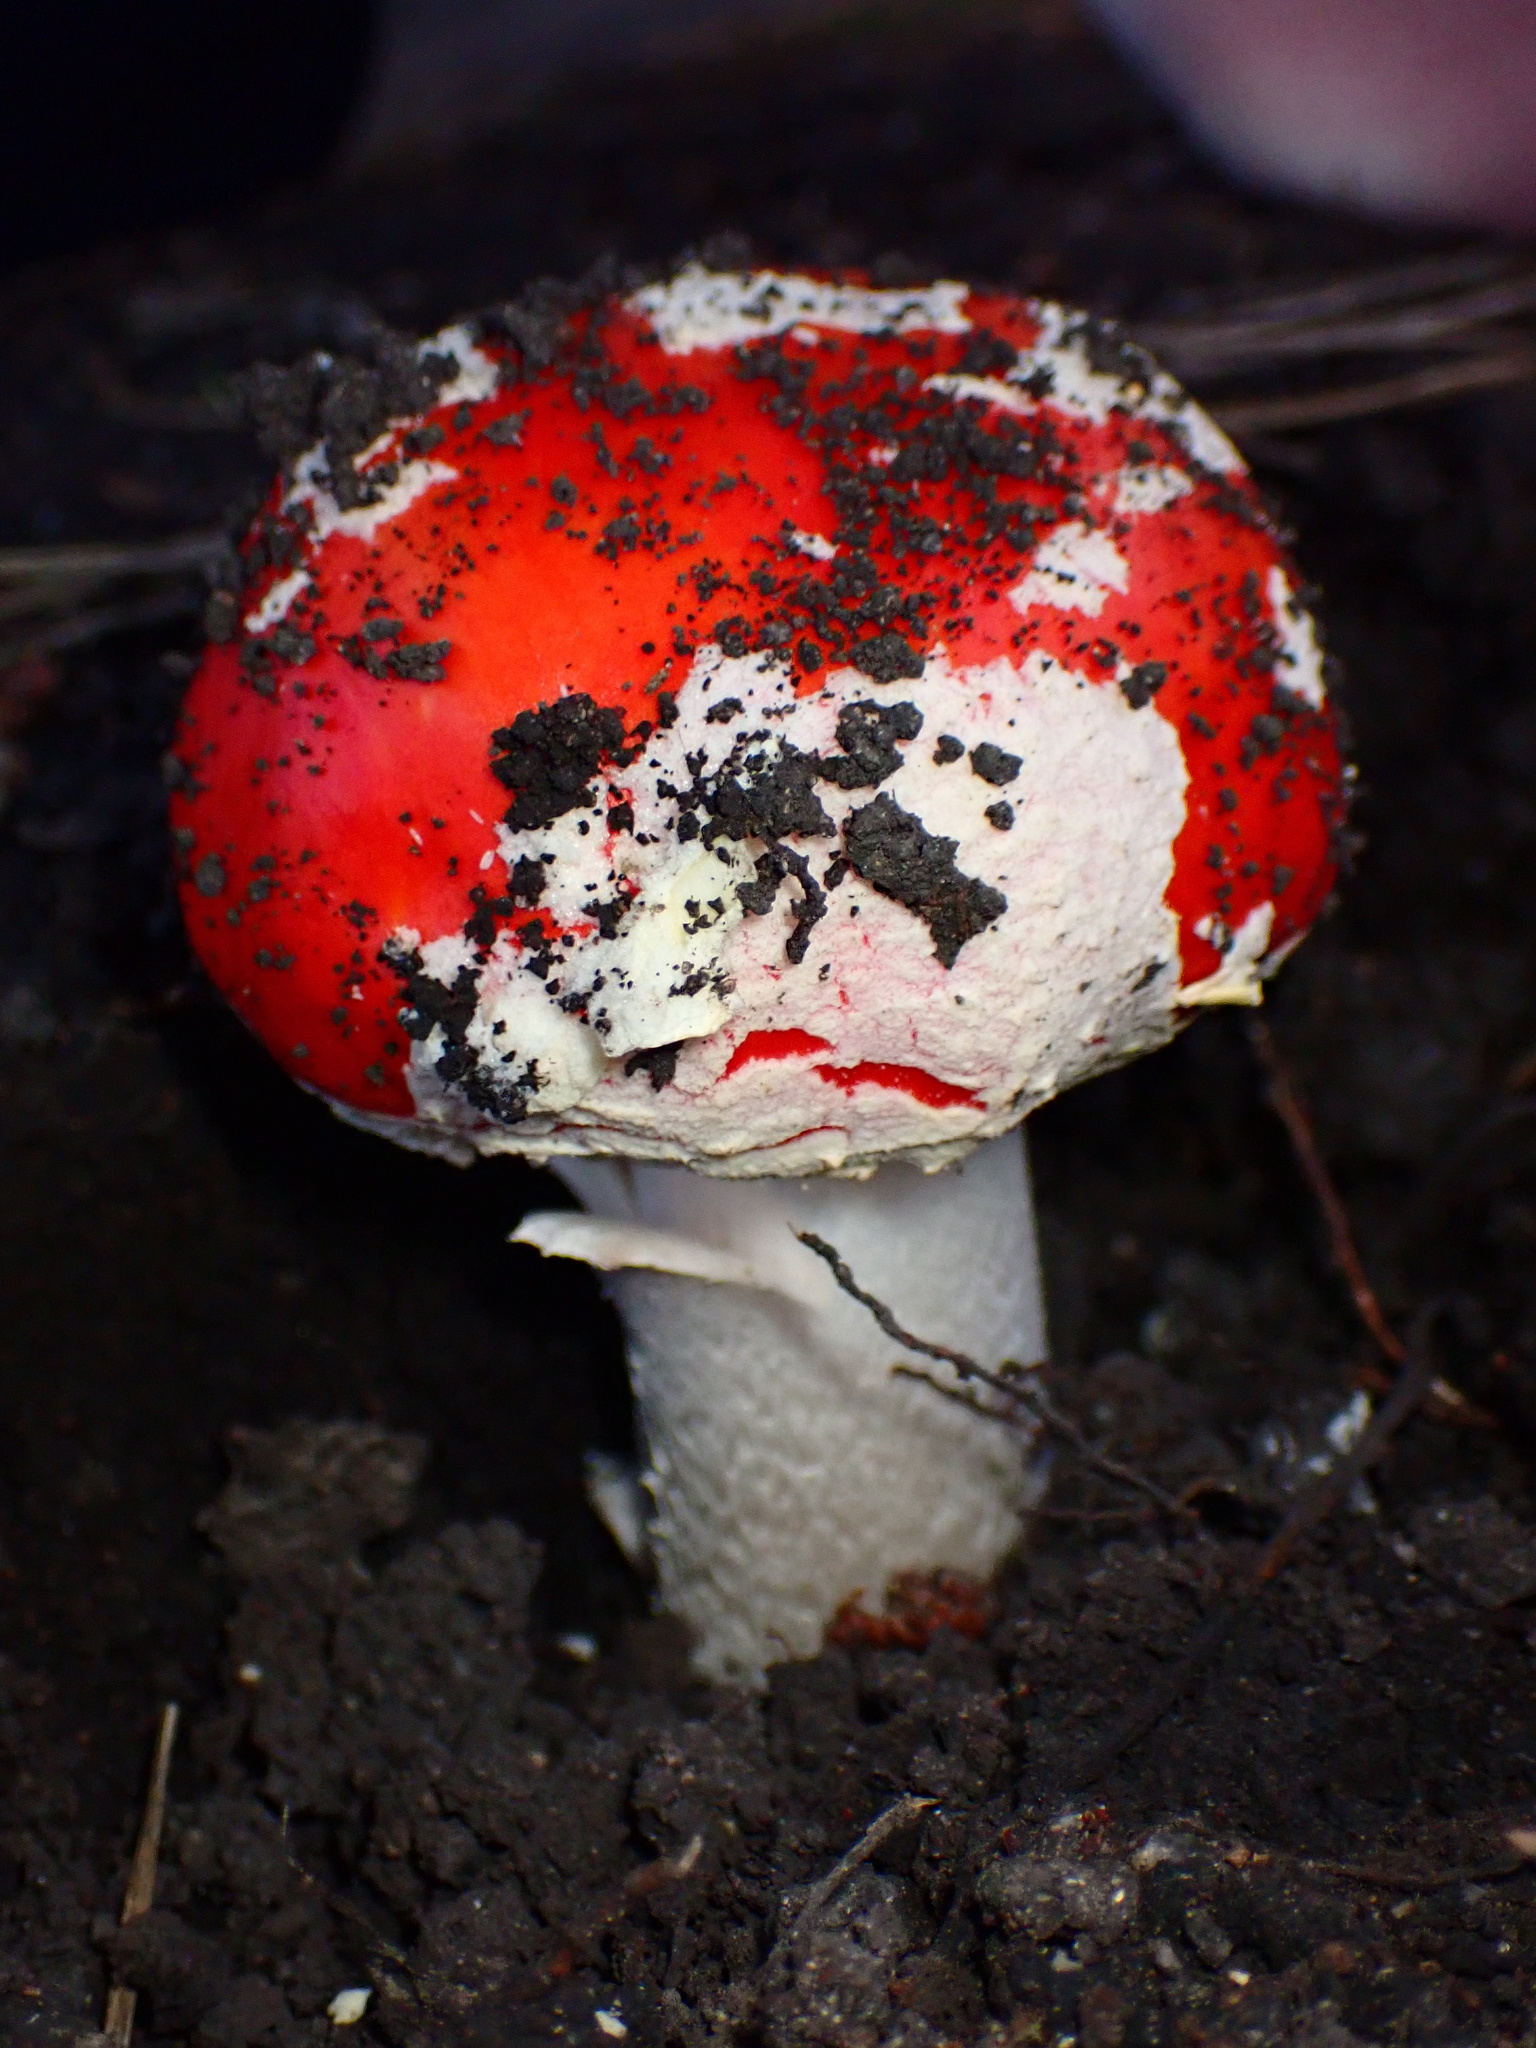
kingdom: Fungi
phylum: Basidiomycota
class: Agaricomycetes
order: Agaricales
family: Amanitaceae
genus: Amanita
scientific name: Amanita muscaria
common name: Fly agaric
